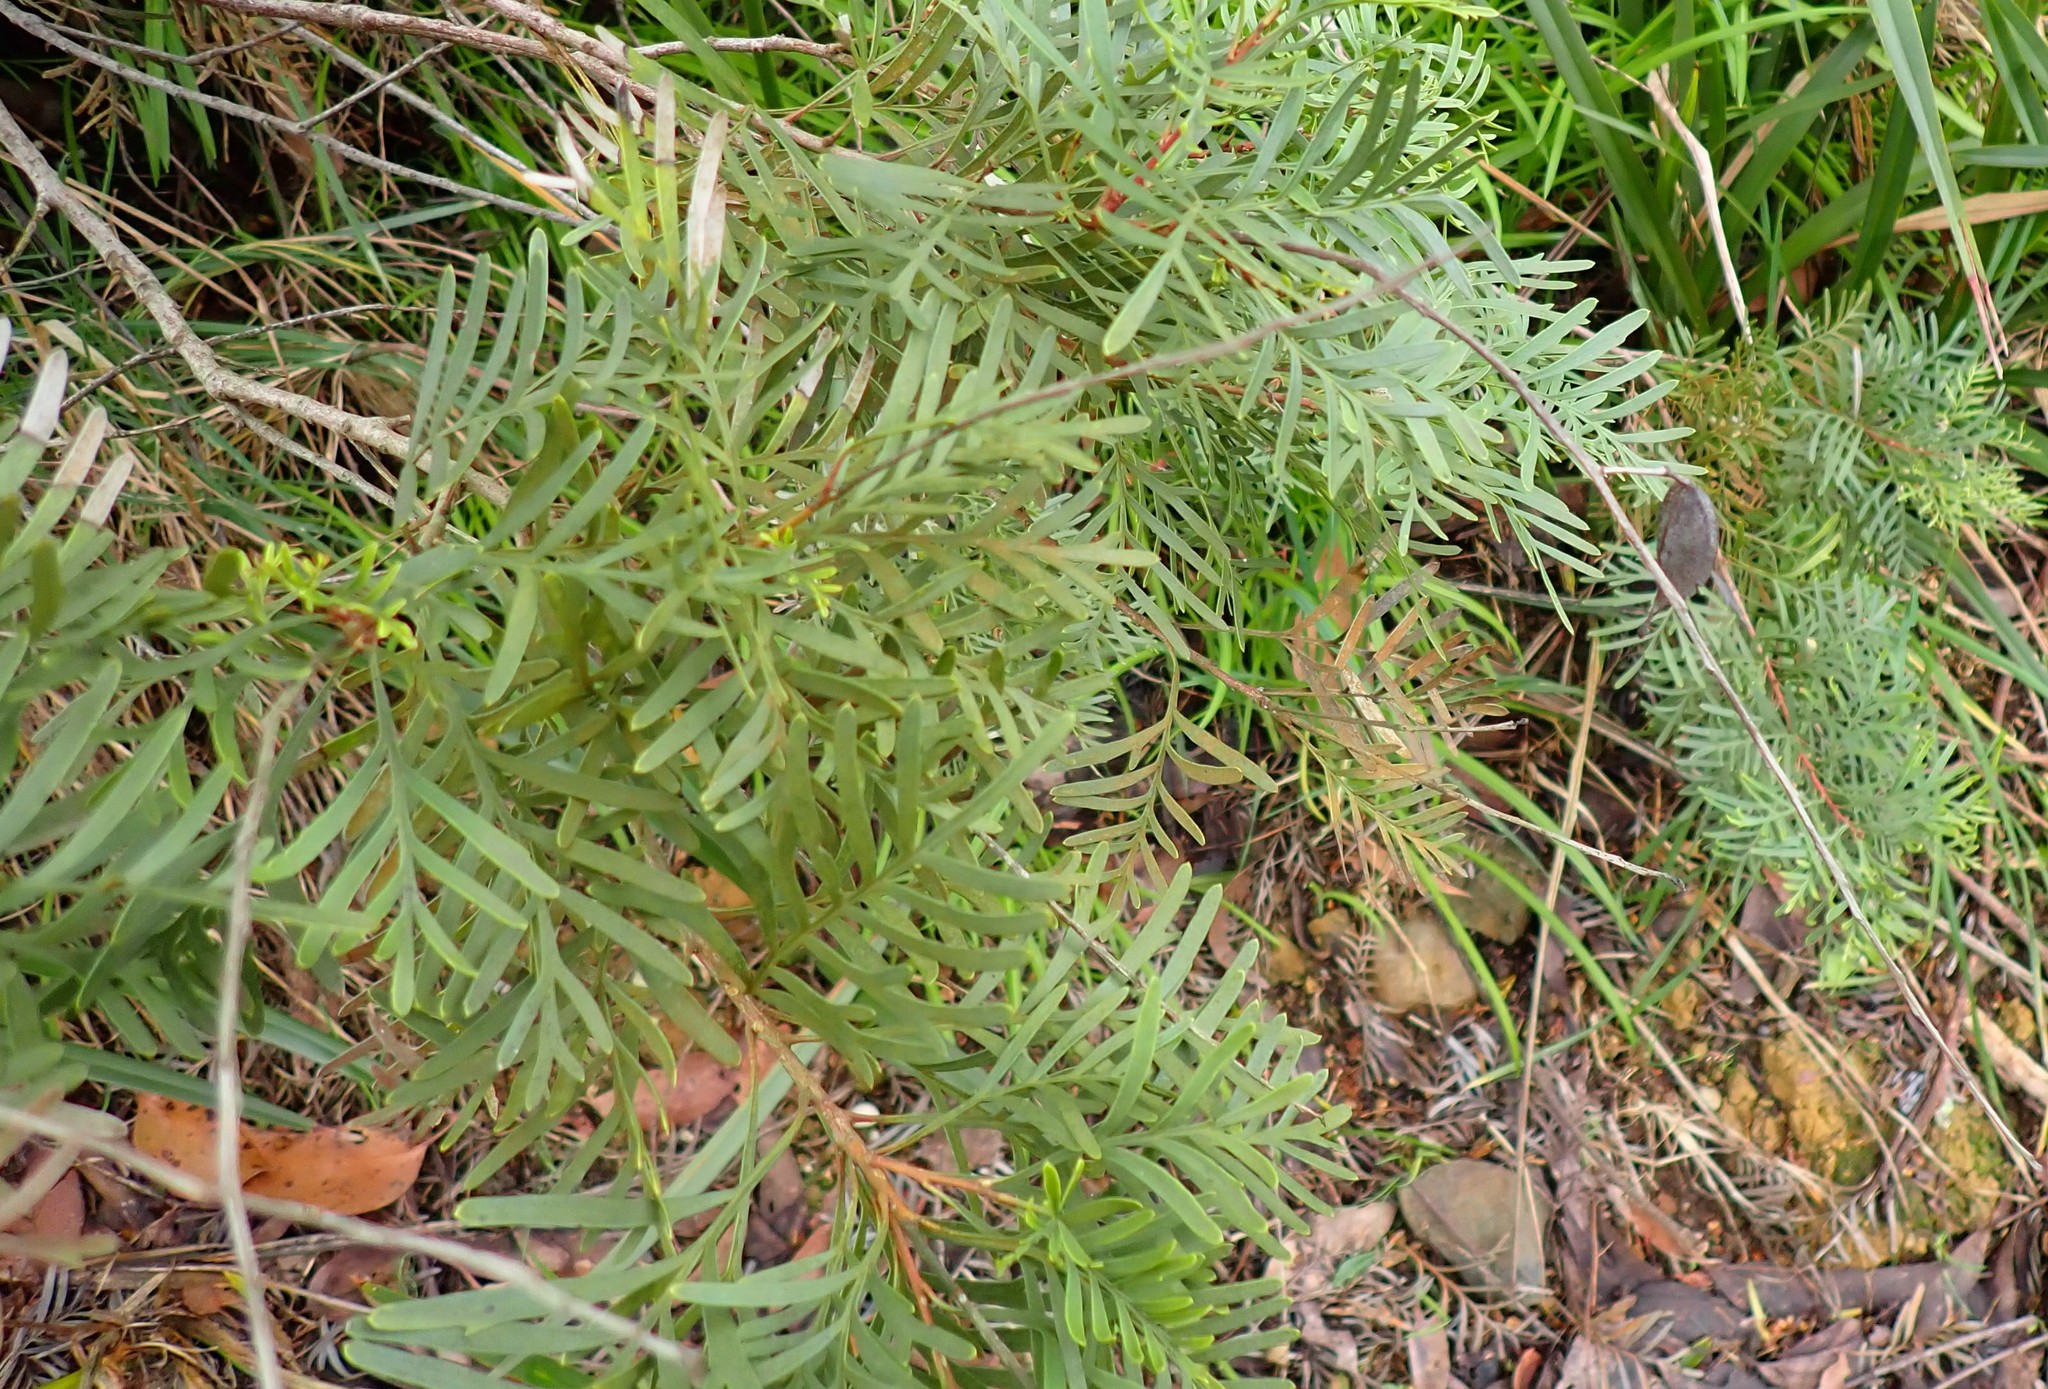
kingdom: Plantae
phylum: Tracheophyta
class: Magnoliopsida
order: Proteales
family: Proteaceae
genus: Lomatia
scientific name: Lomatia tinctoria
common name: Guitar plant
